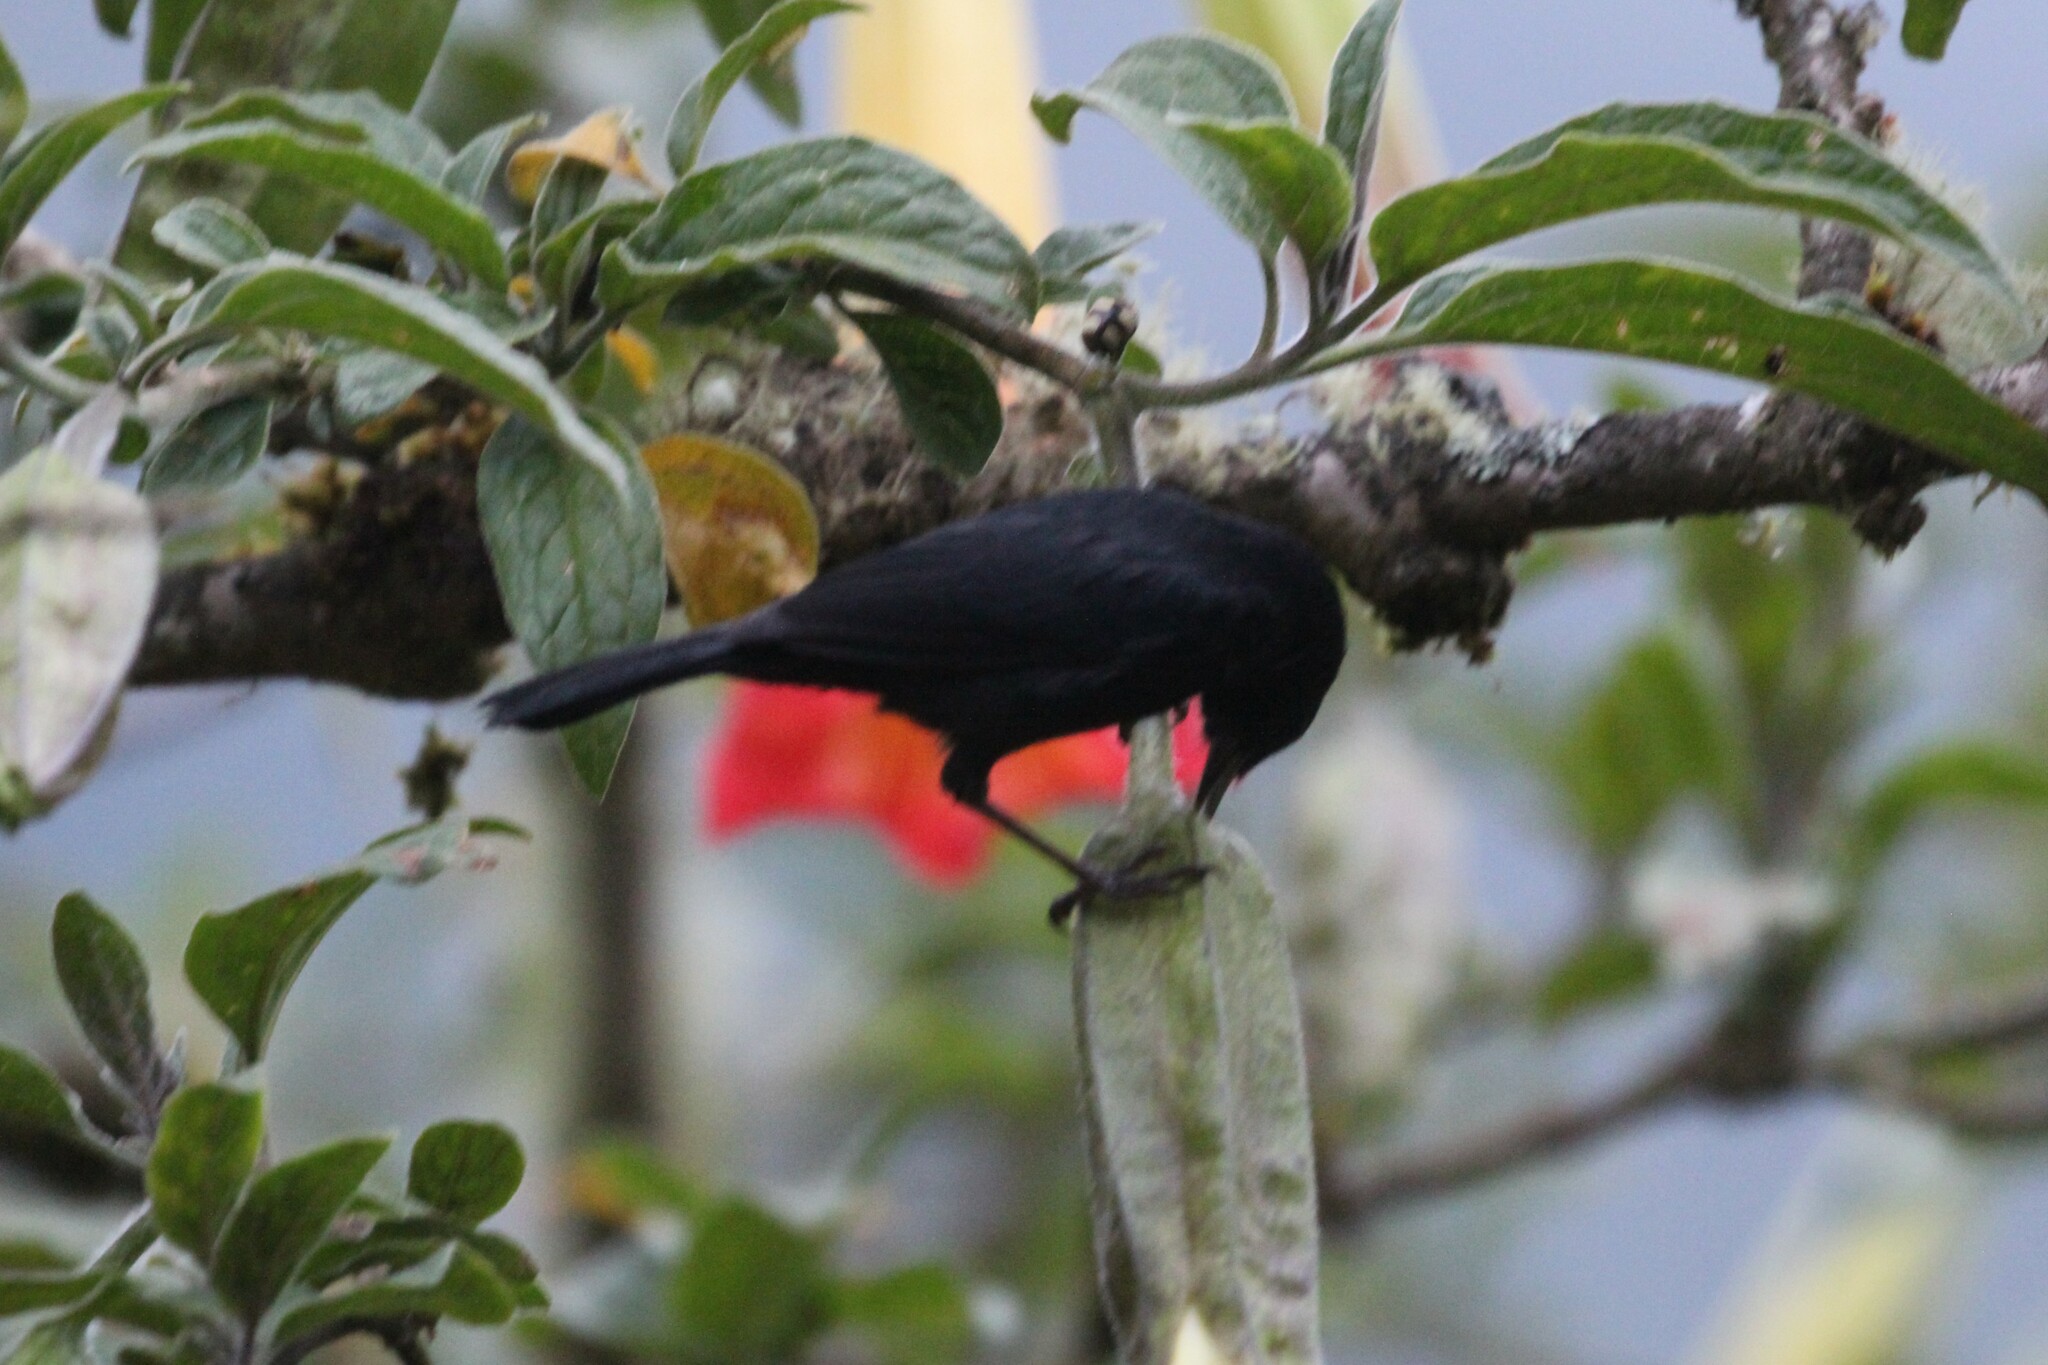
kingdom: Animalia
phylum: Chordata
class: Aves
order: Passeriformes
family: Thraupidae
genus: Diglossa
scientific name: Diglossa humeralis
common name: Black flowerpiercer
